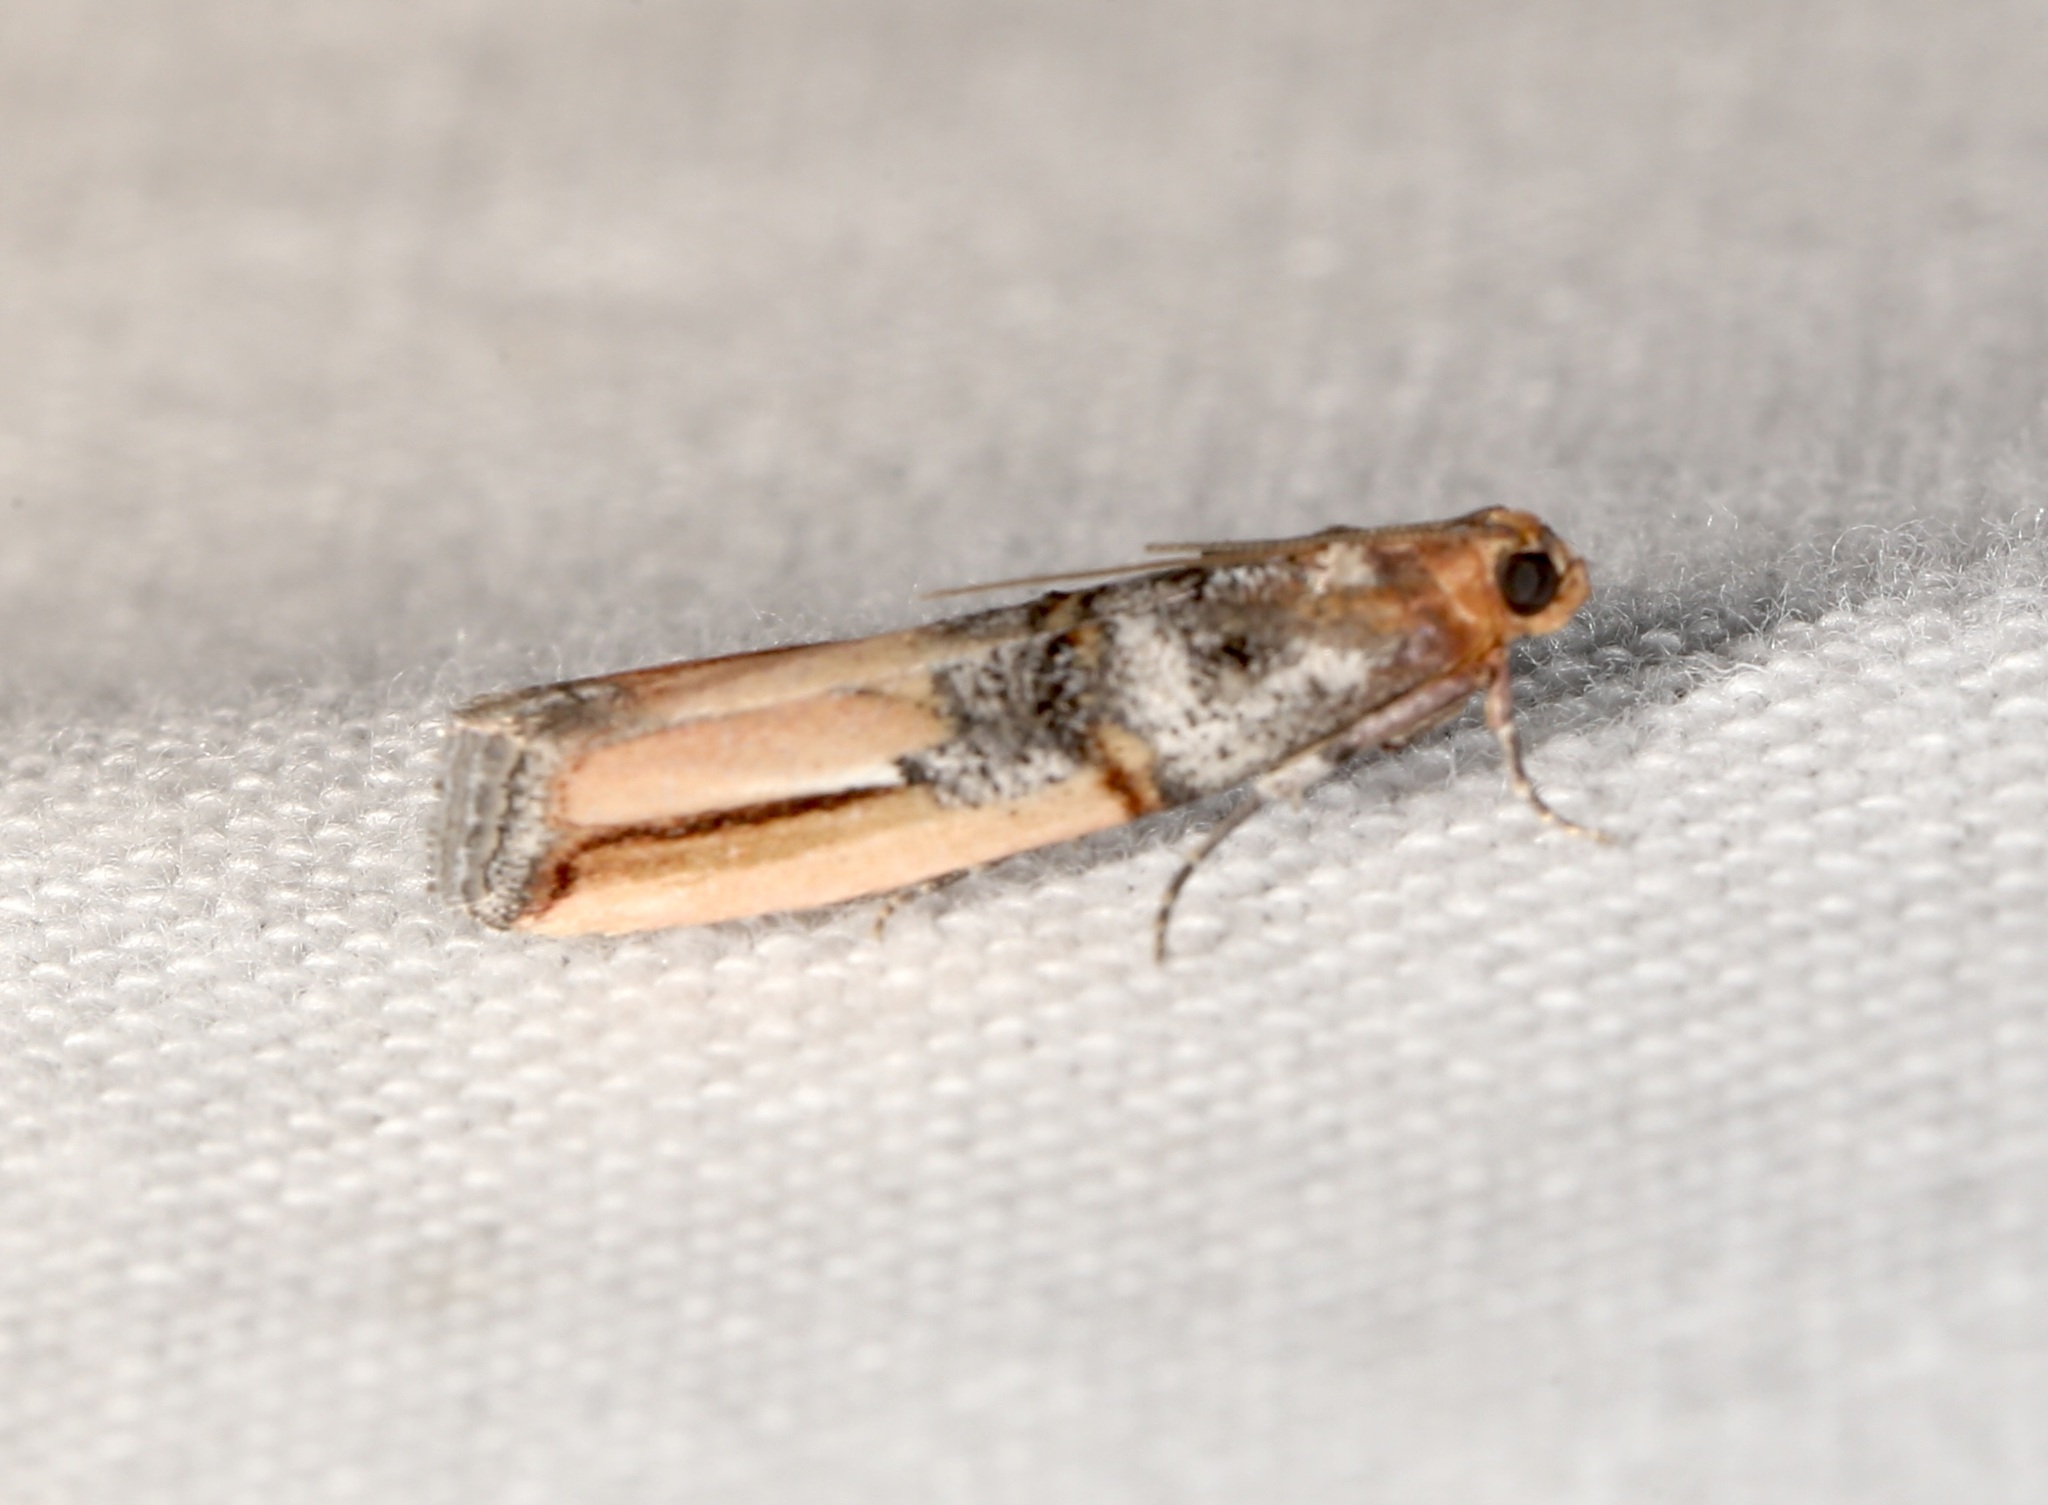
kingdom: Animalia
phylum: Arthropoda
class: Insecta
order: Lepidoptera
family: Pyralidae
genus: Dasypyga
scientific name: Dasypyga alternosquamella
